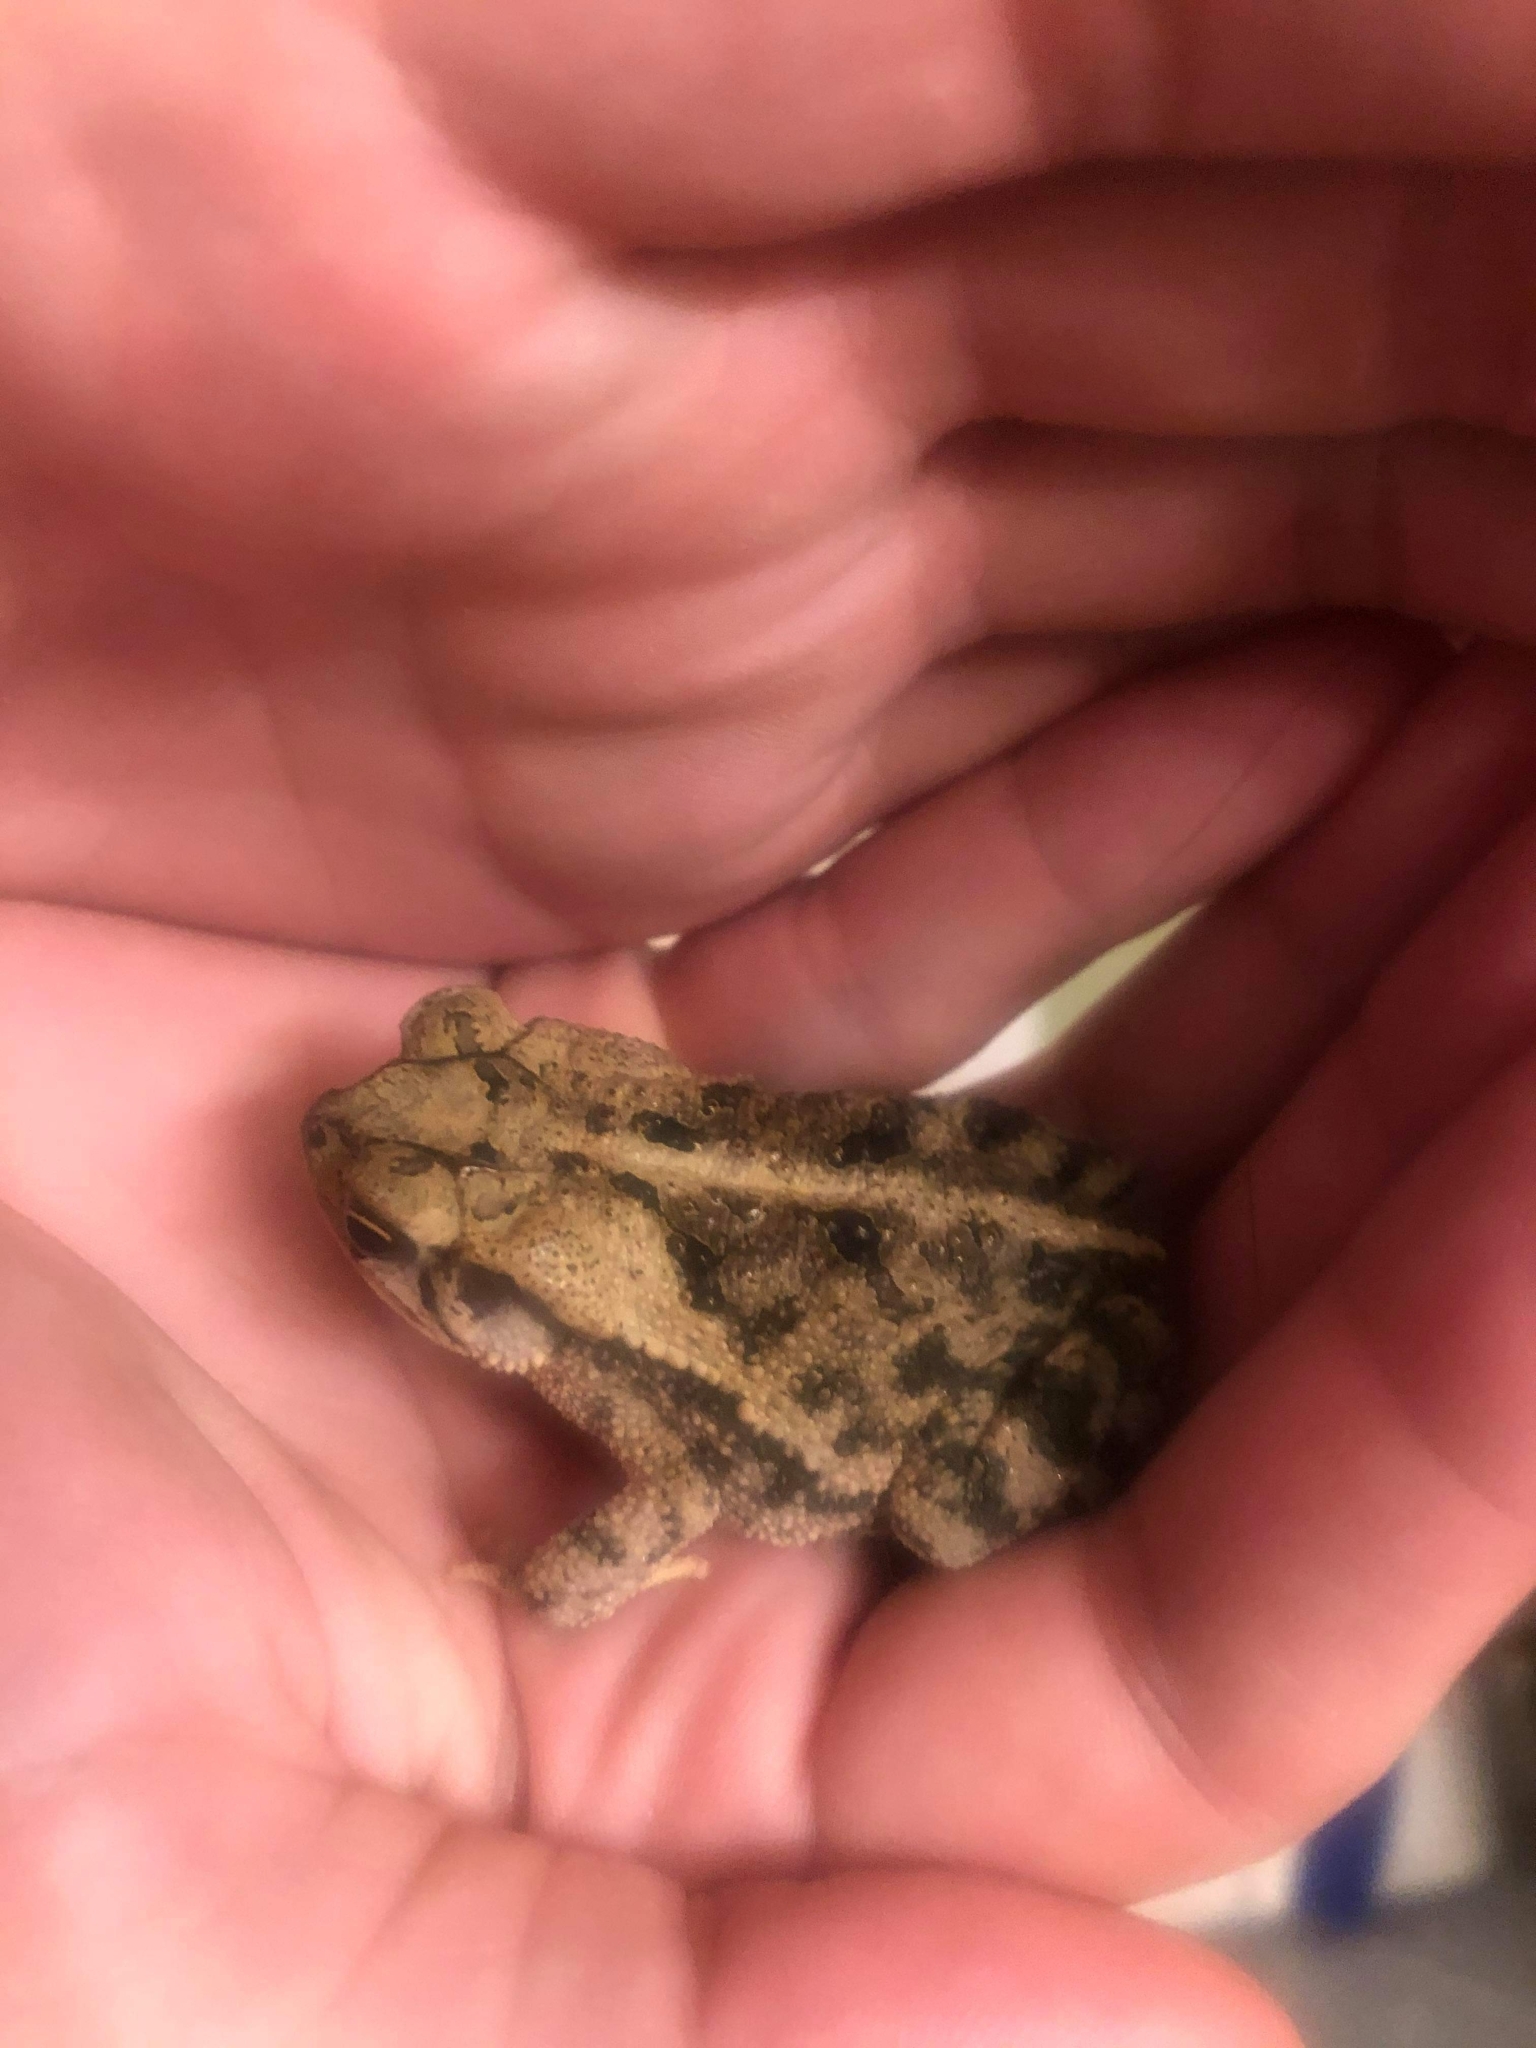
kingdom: Animalia
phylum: Chordata
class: Amphibia
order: Anura
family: Bufonidae
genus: Incilius
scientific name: Incilius nebulifer
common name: Gulf coast toad
